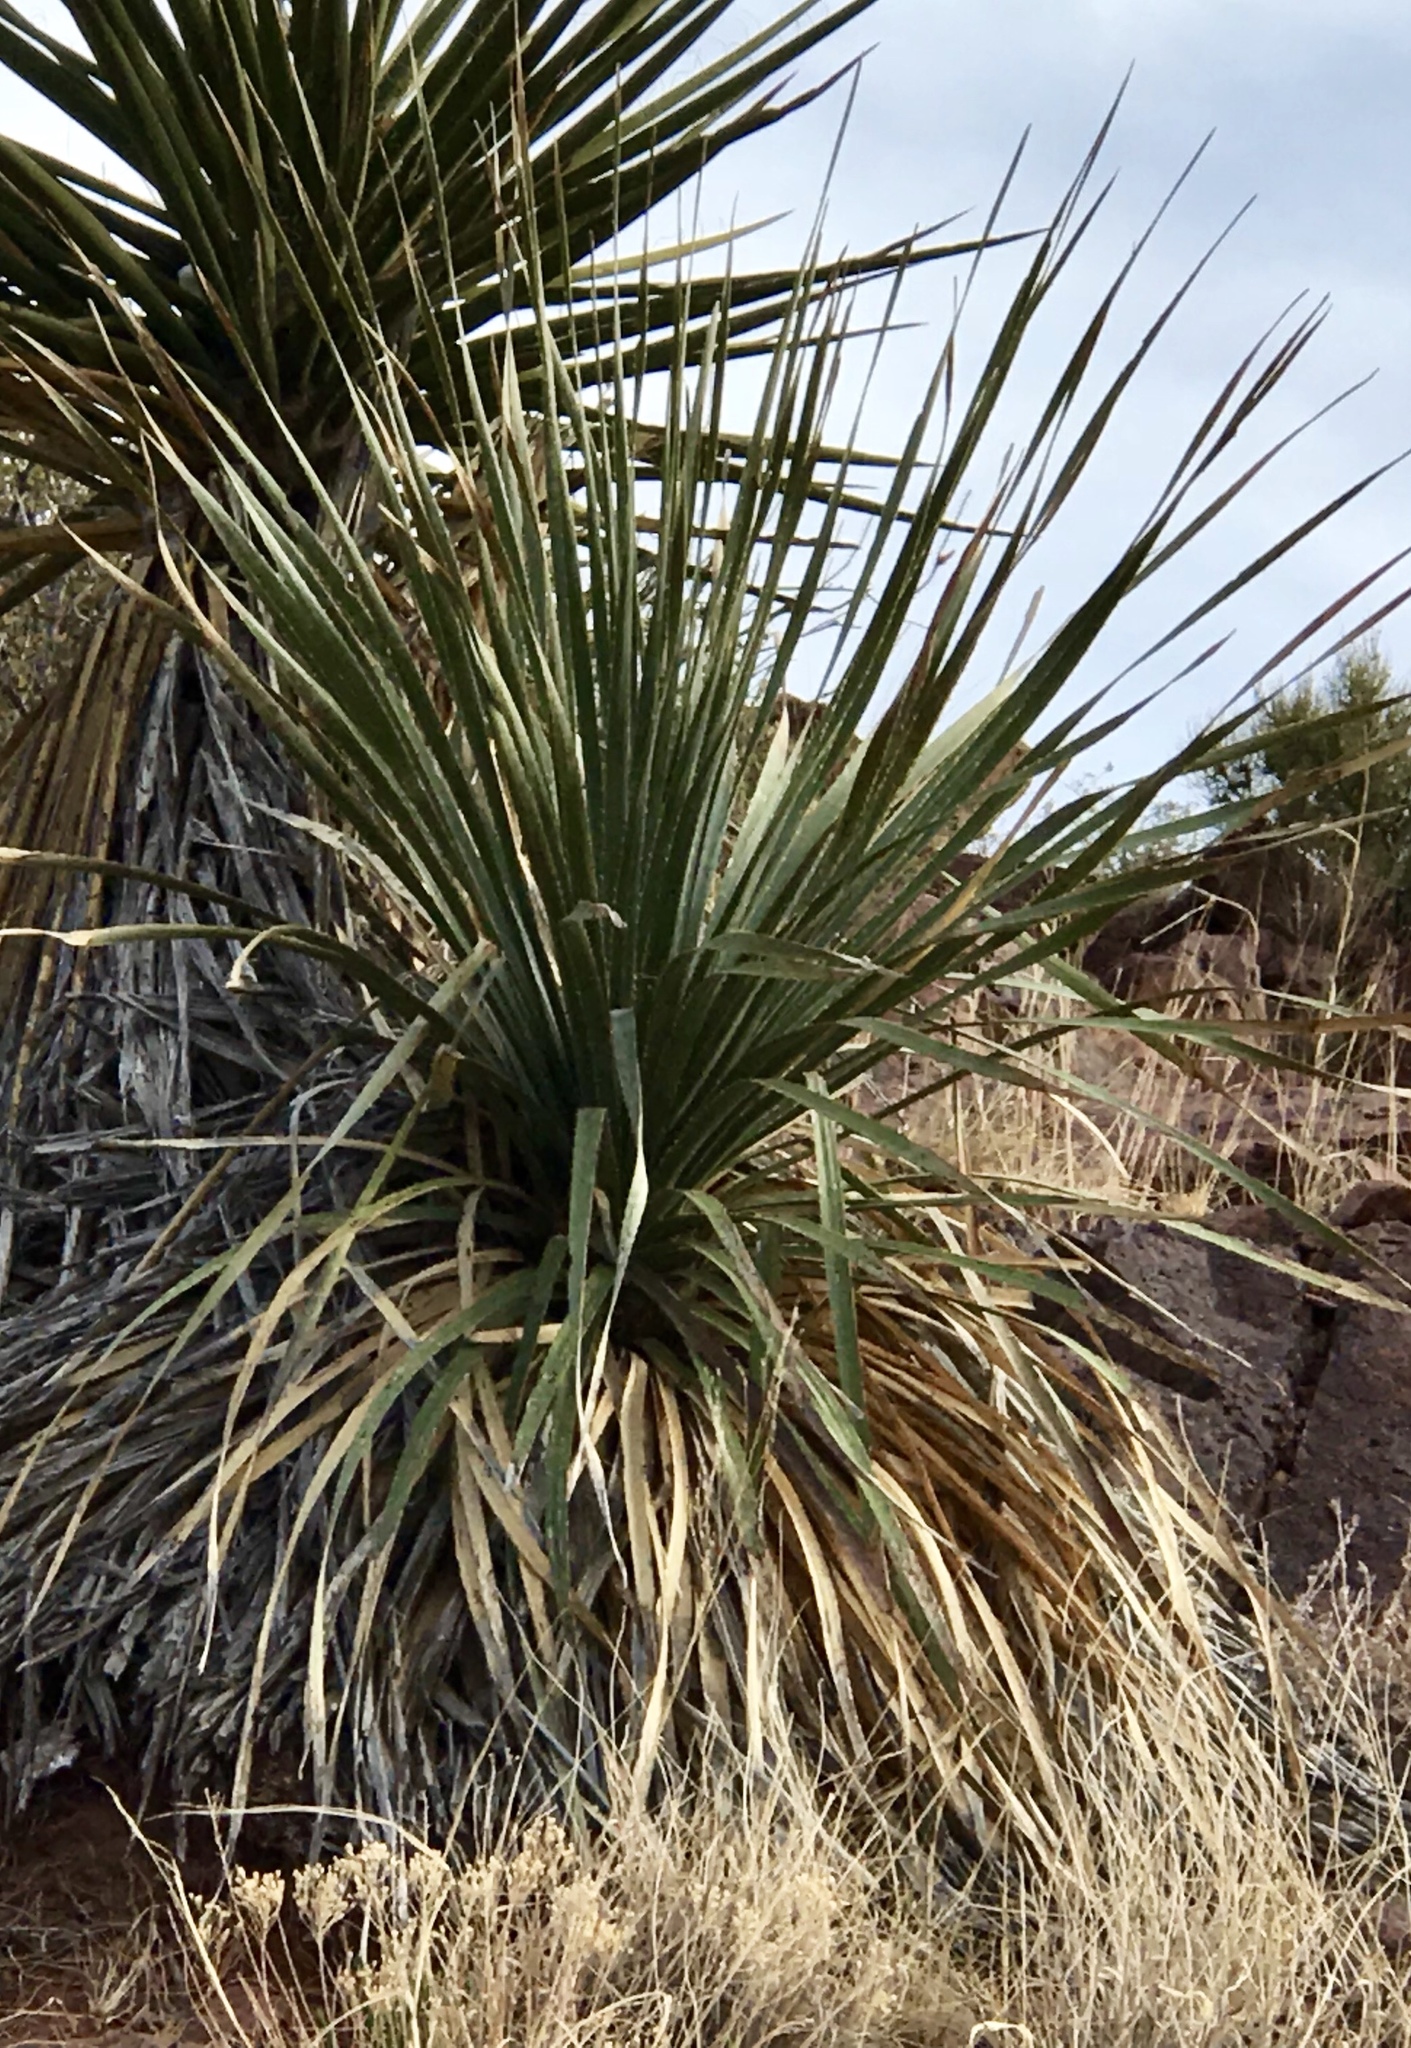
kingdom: Plantae
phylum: Tracheophyta
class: Liliopsida
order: Asparagales
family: Asparagaceae
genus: Dasylirion
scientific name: Dasylirion wheeleri
